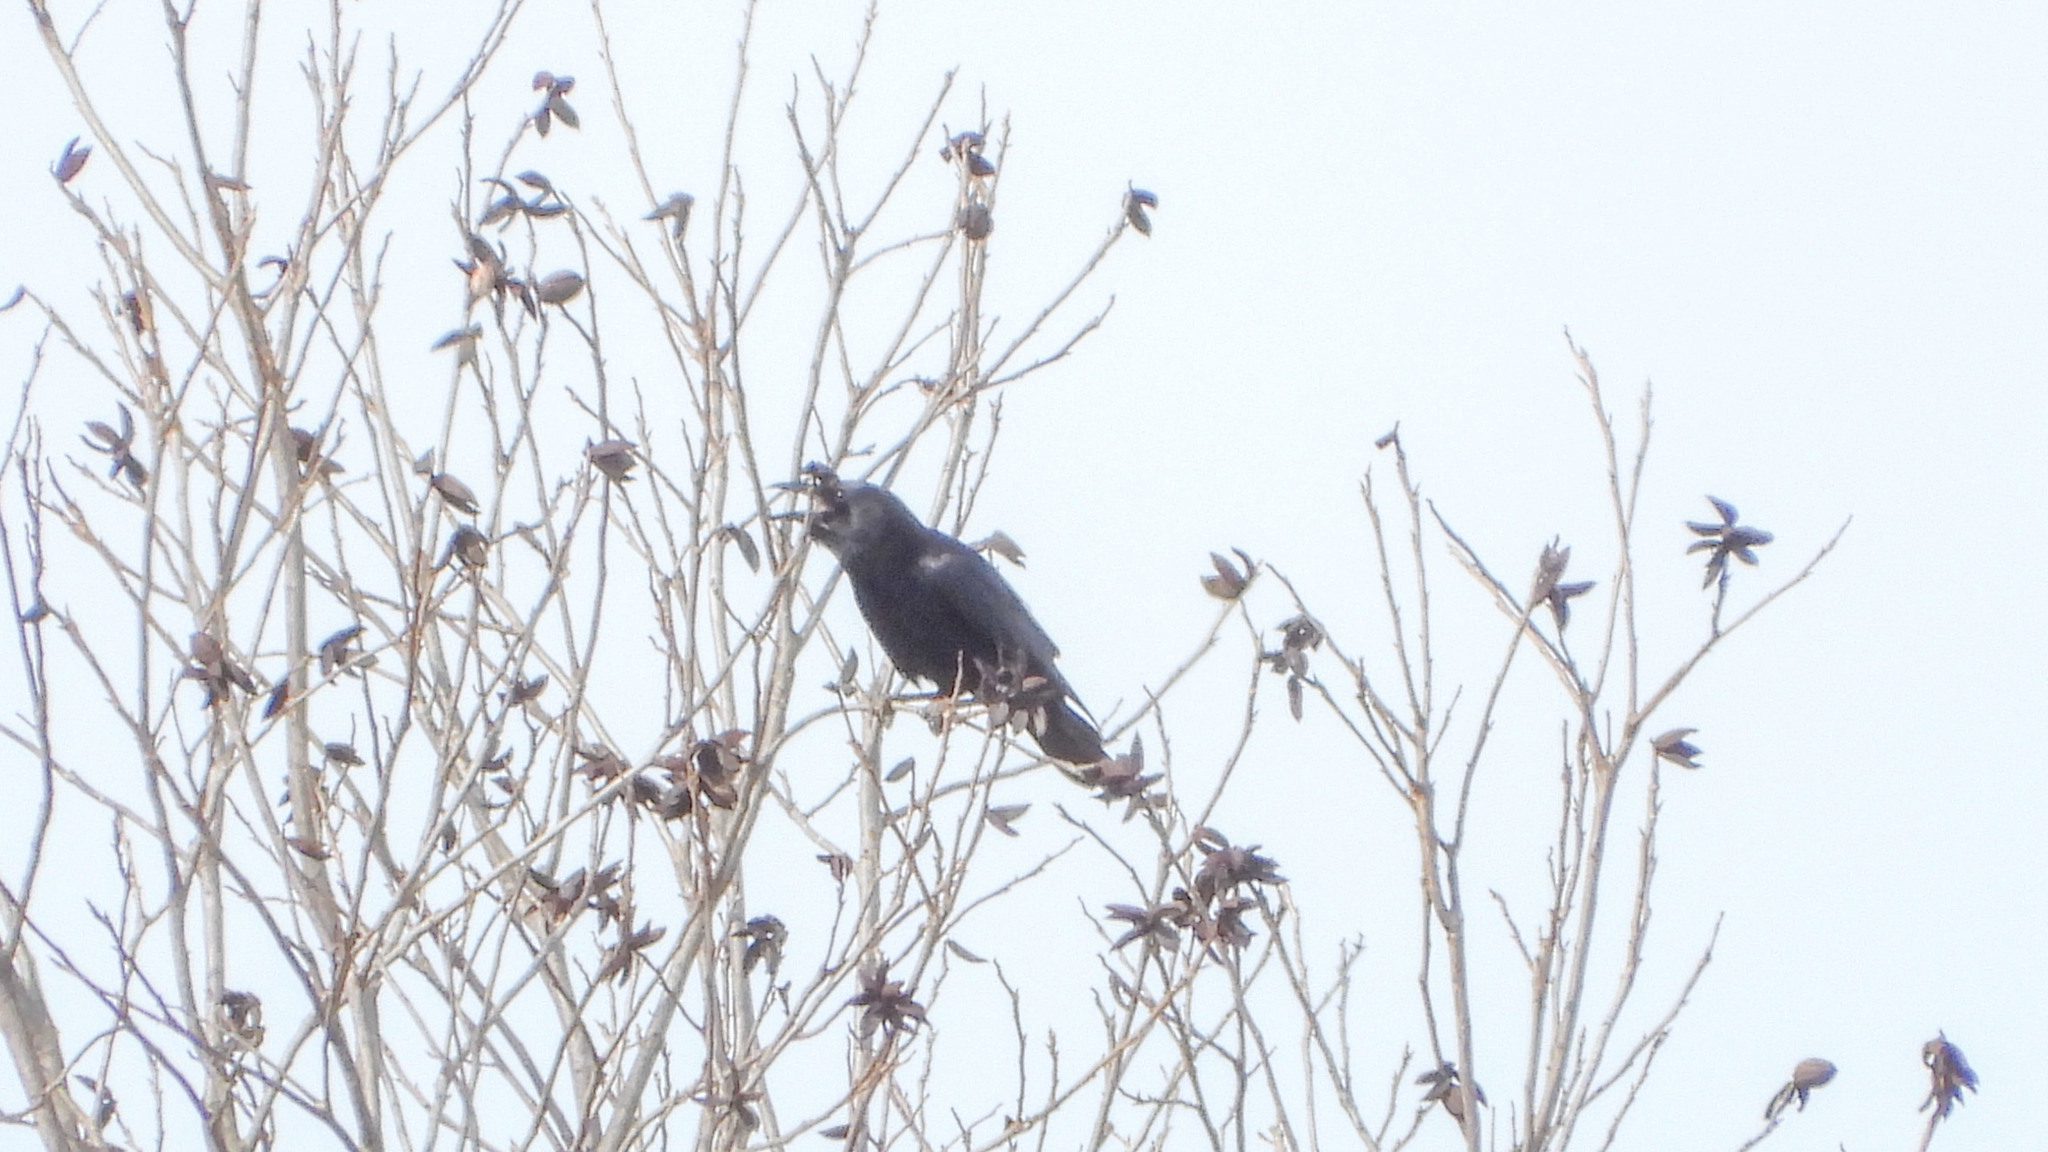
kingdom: Animalia
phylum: Chordata
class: Aves
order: Passeriformes
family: Corvidae
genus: Corvus
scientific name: Corvus brachyrhynchos
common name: American crow
